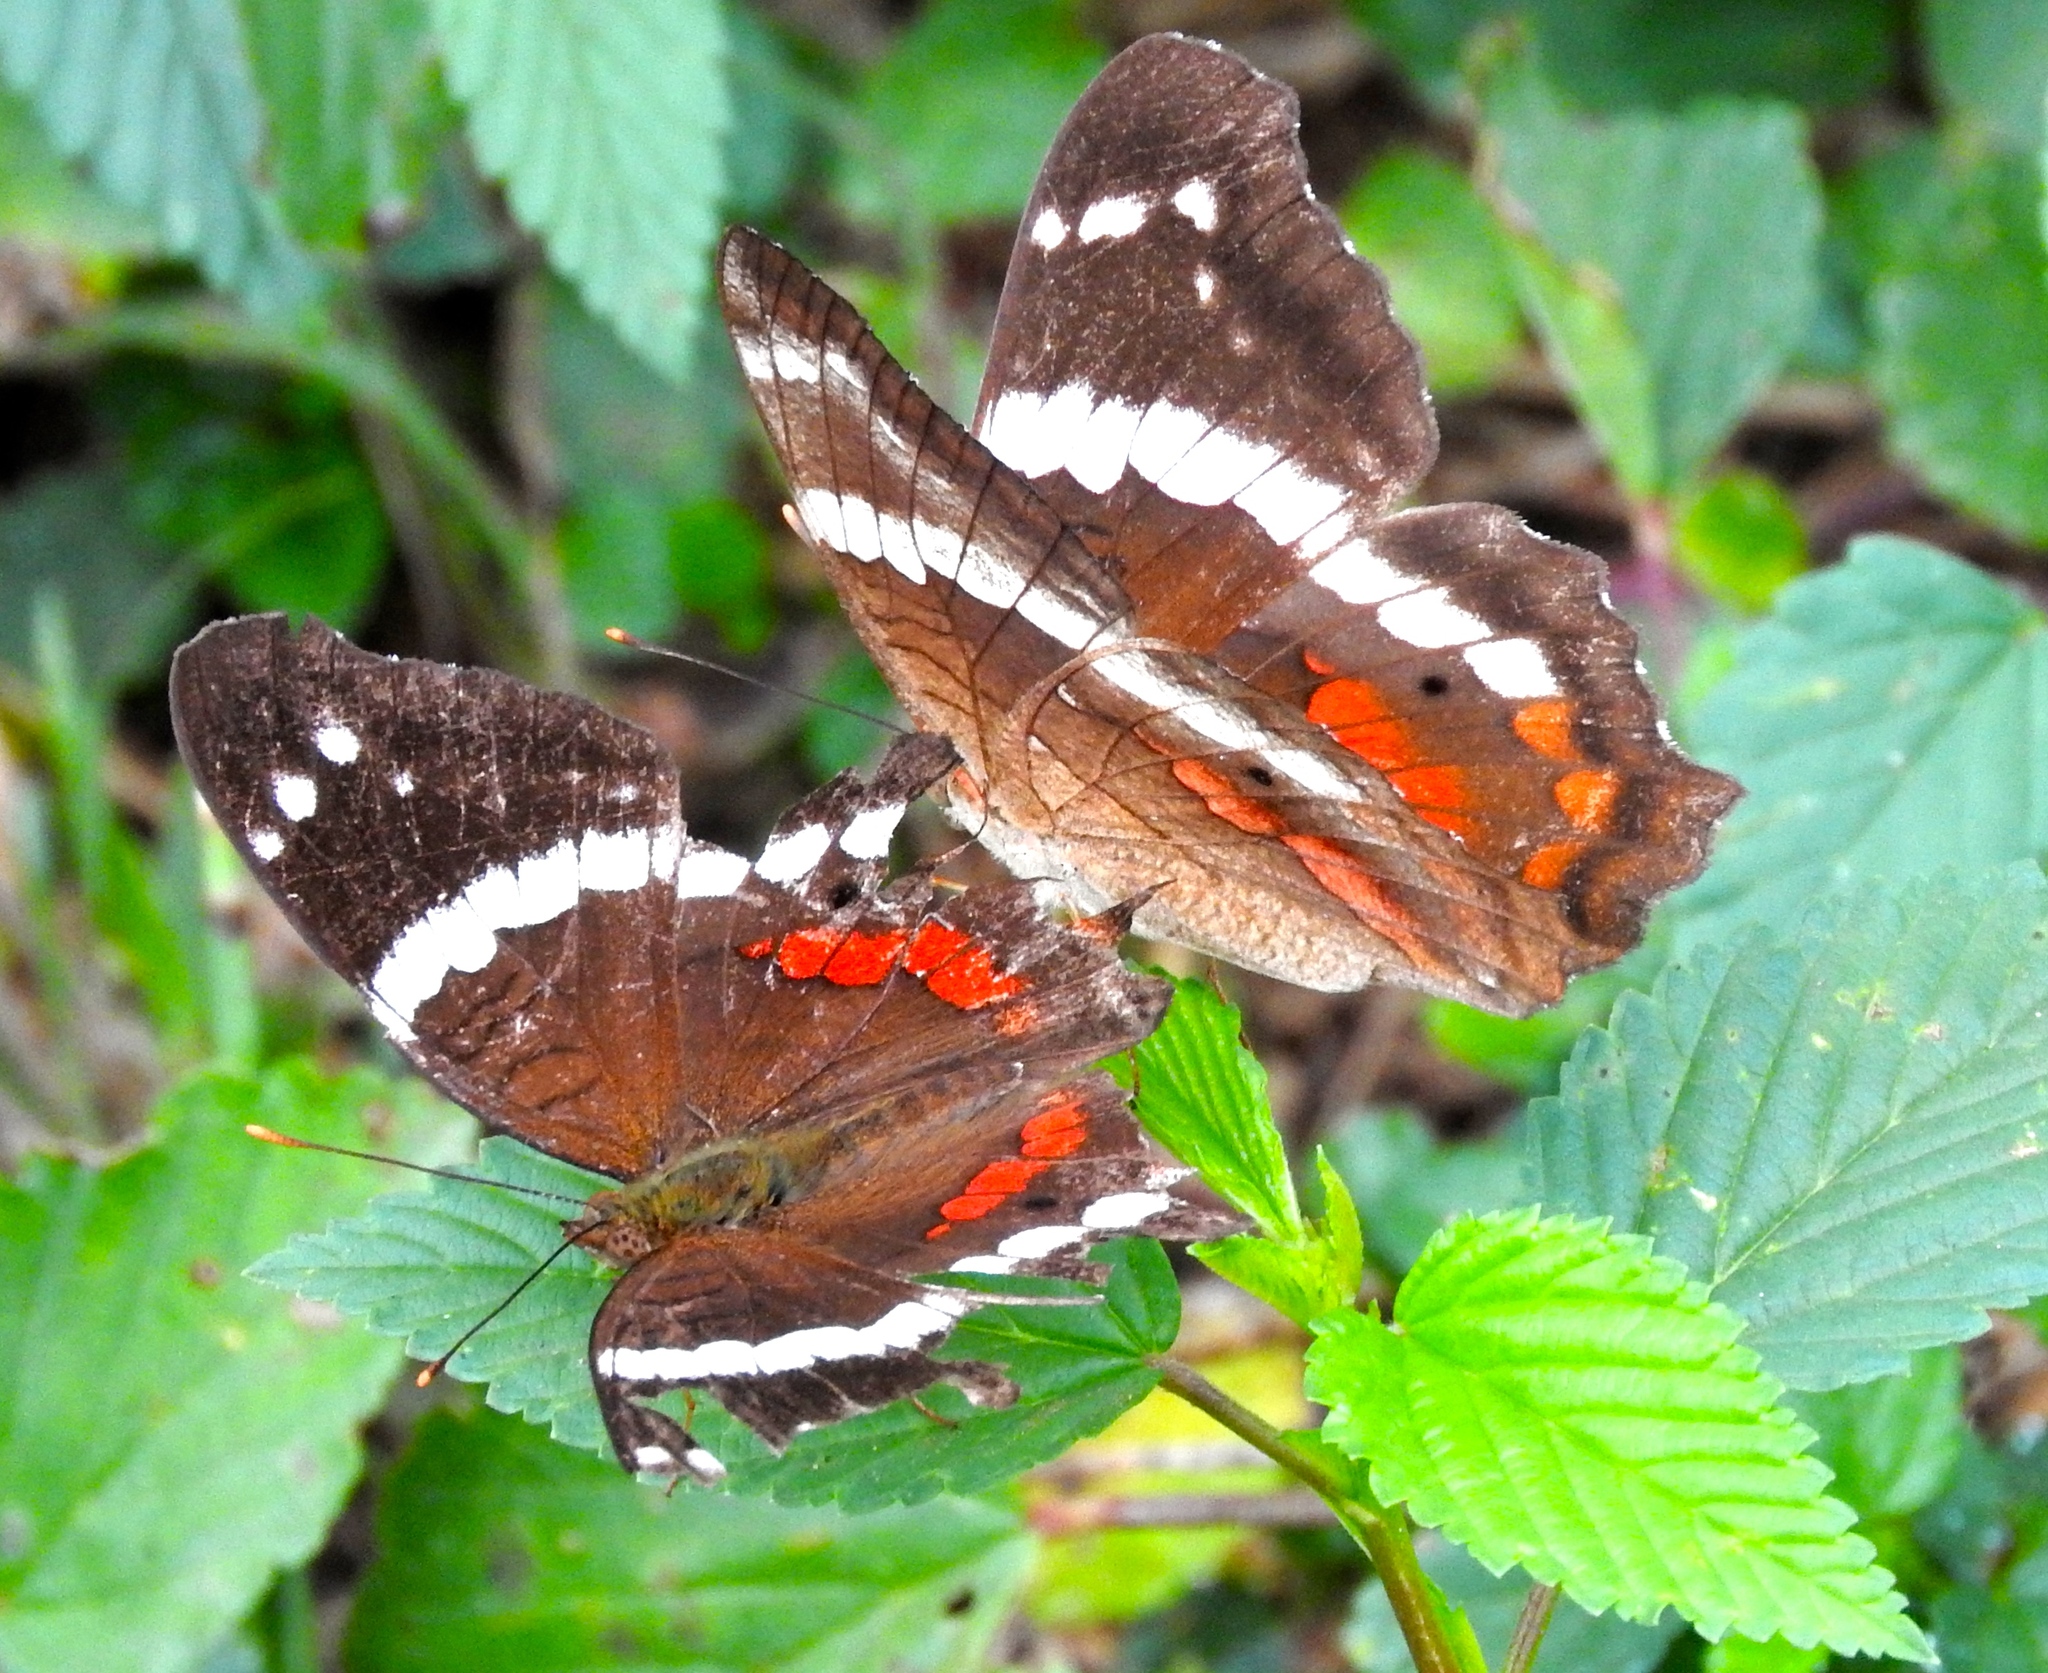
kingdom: Animalia
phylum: Arthropoda
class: Insecta
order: Lepidoptera
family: Nymphalidae
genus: Anartia
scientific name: Anartia fatima
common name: Banded peacock
